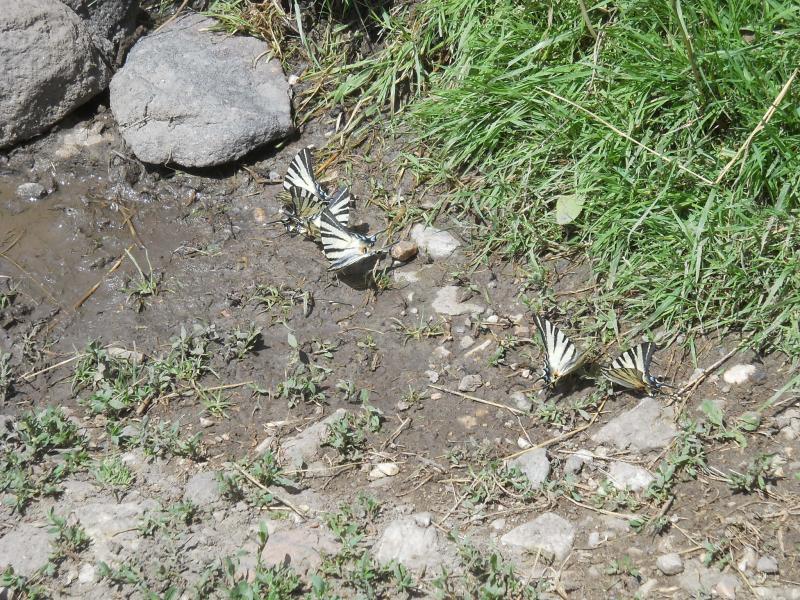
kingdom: Animalia
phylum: Arthropoda
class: Insecta
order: Lepidoptera
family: Papilionidae
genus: Iphiclides
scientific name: Iphiclides podalirius
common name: Scarce swallowtail
